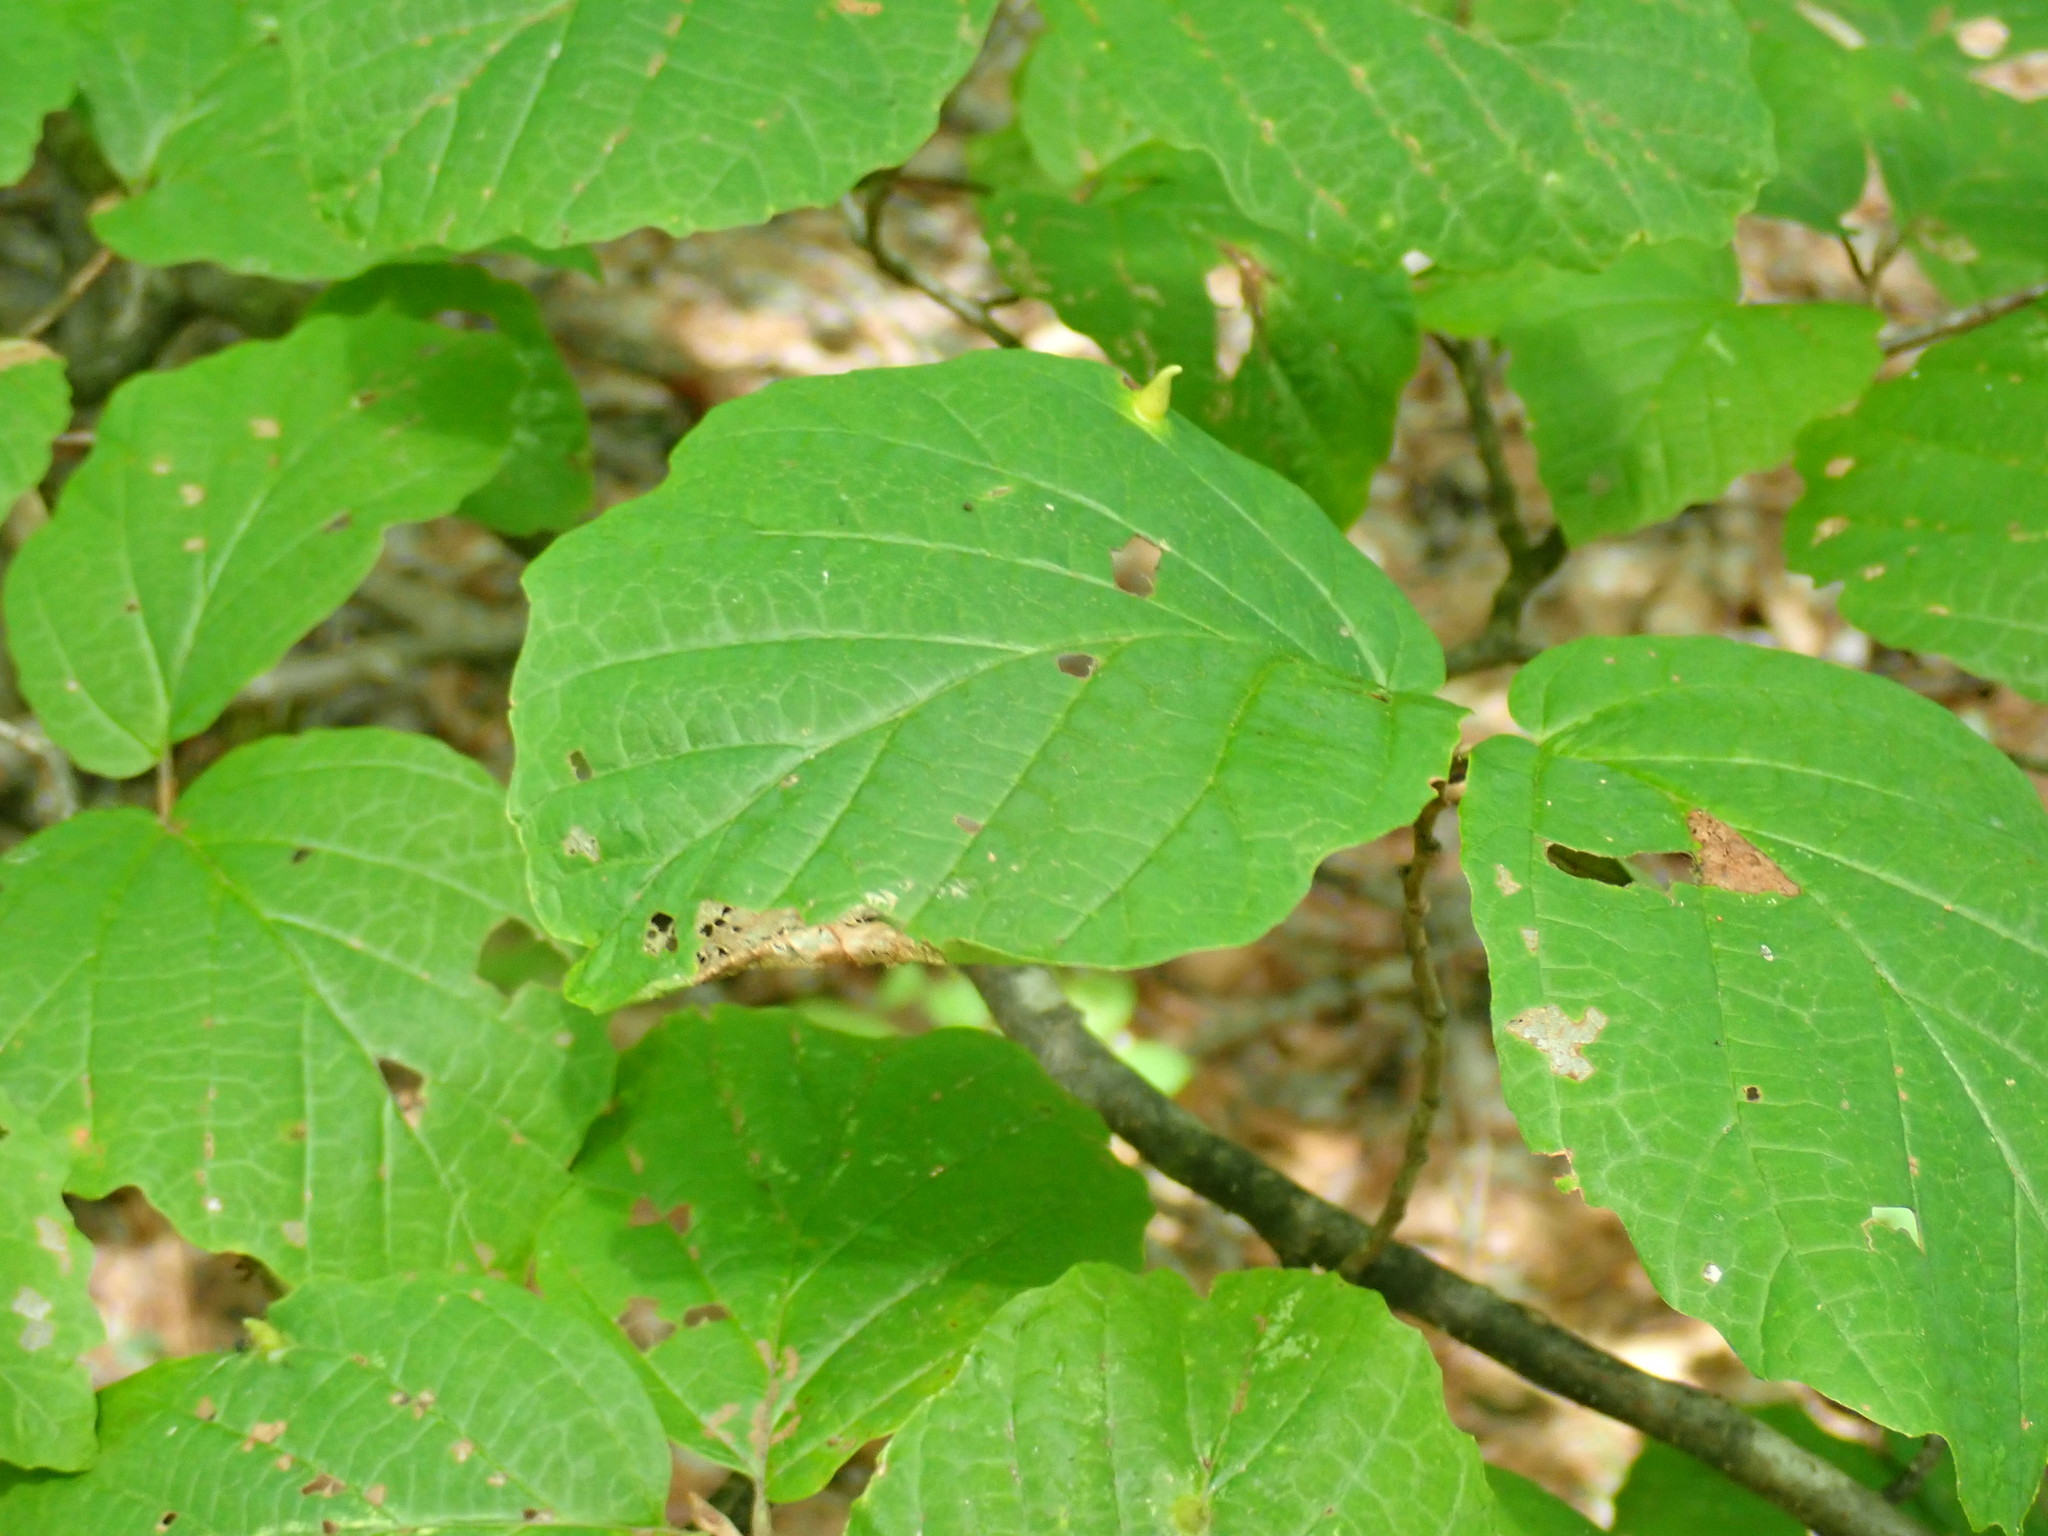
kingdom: Animalia
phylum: Arthropoda
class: Insecta
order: Hemiptera
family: Aphididae
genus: Hormaphis
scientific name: Hormaphis hamamelidis
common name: Witch-hazel cone gall aphid
